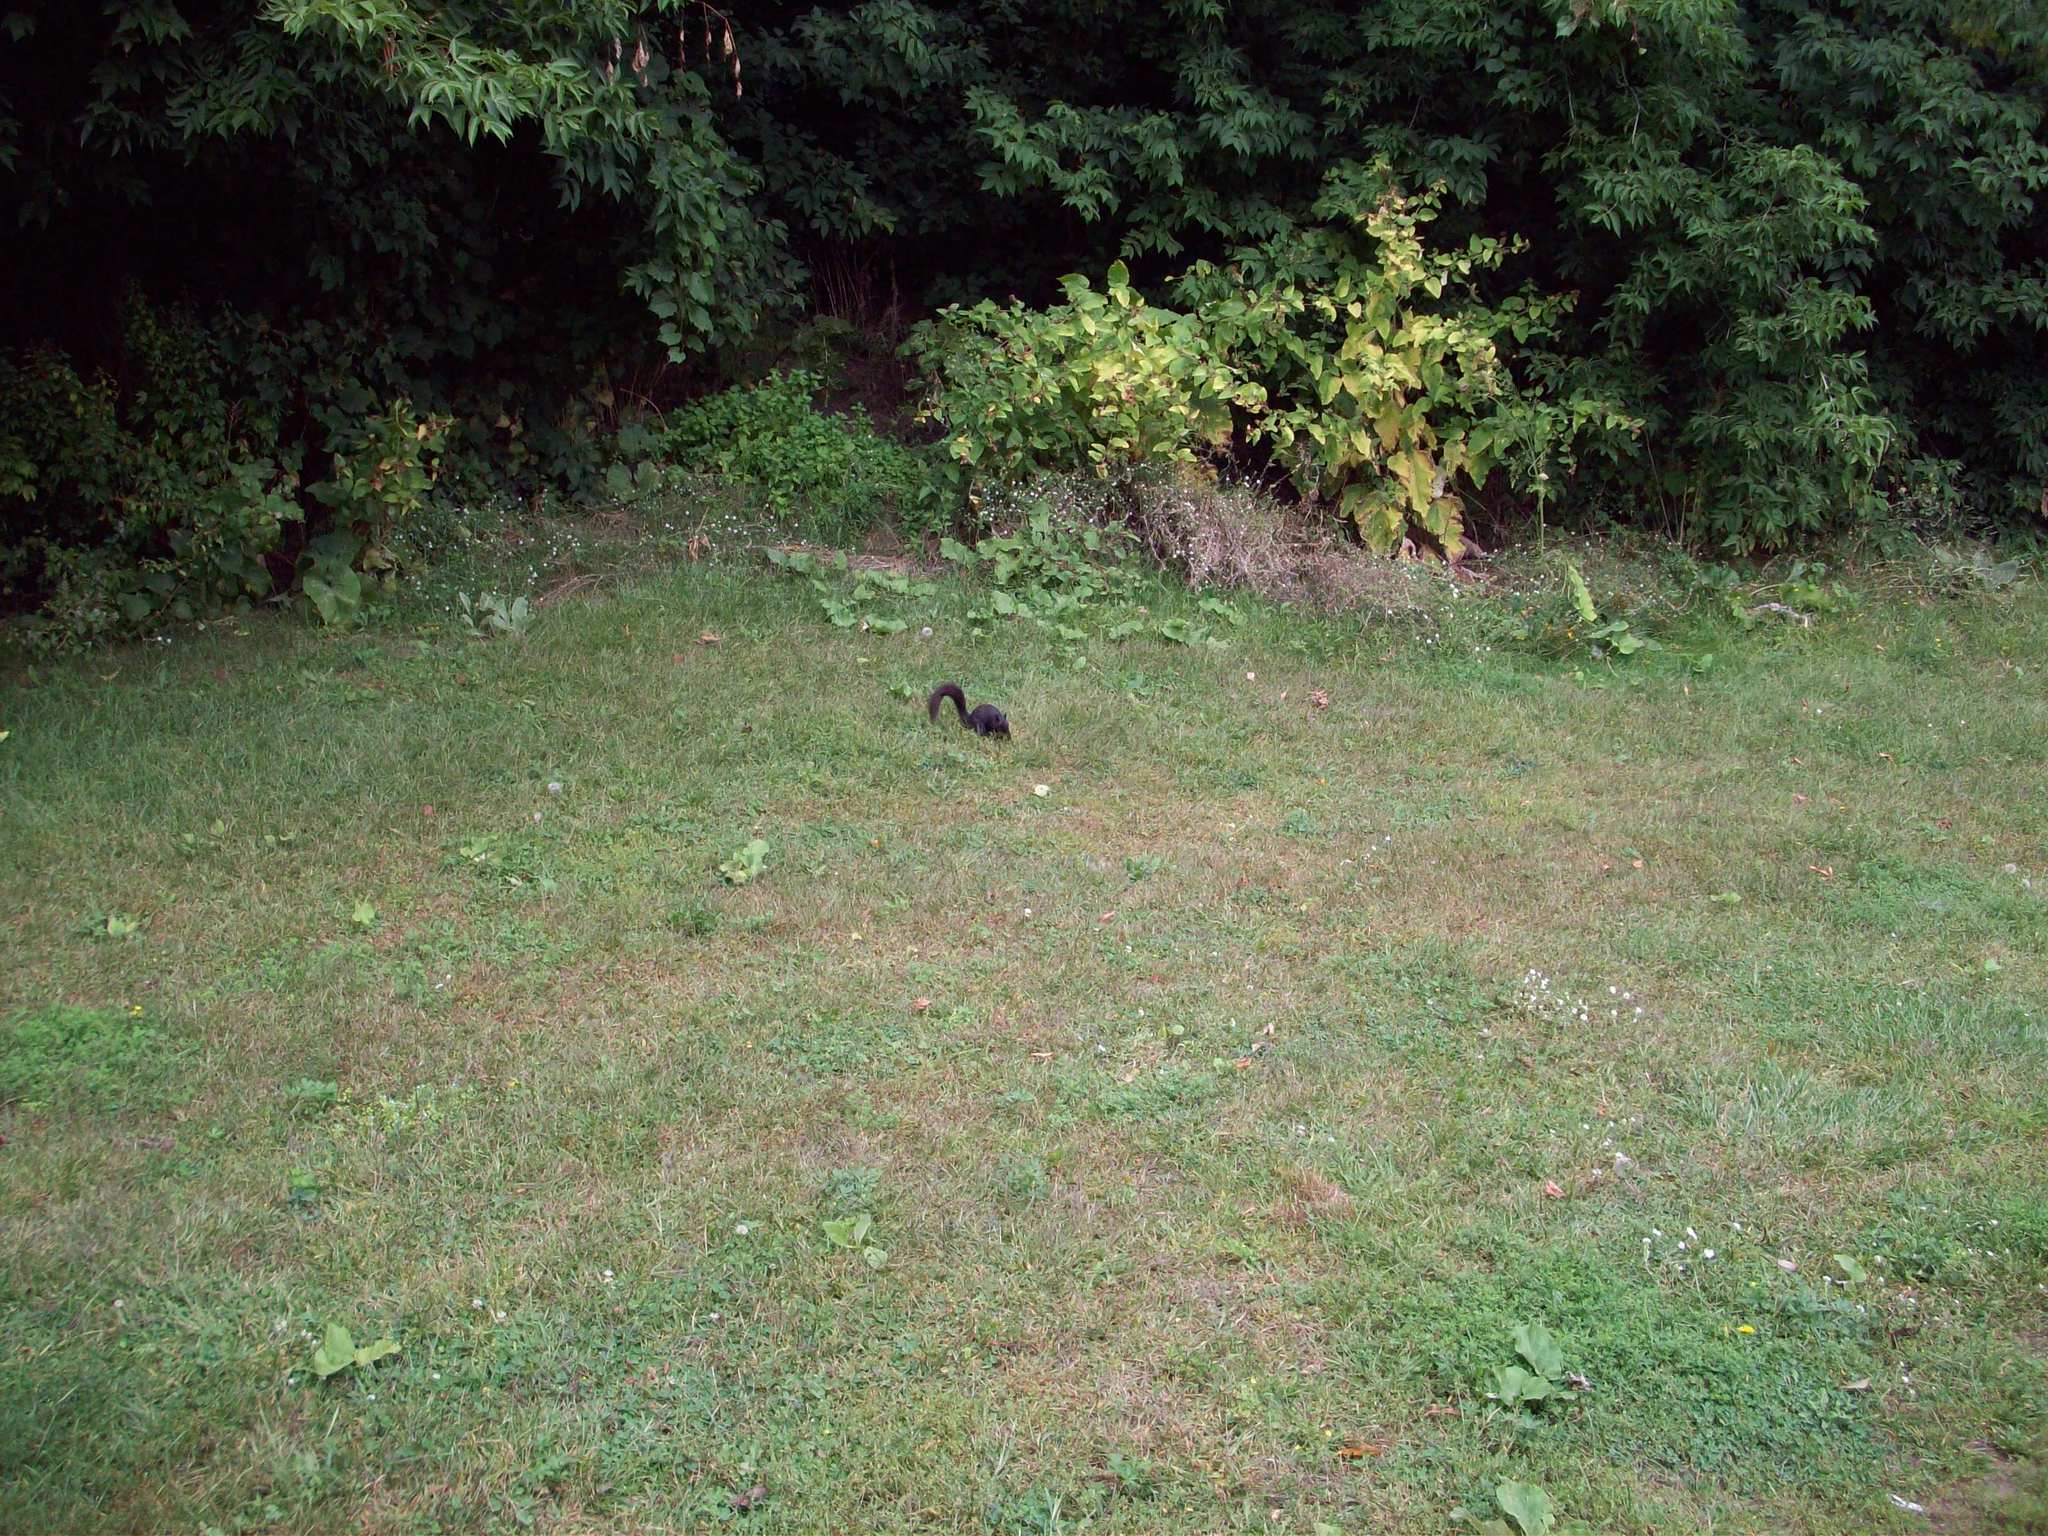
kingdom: Animalia
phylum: Chordata
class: Mammalia
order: Rodentia
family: Sciuridae
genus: Sciurus
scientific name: Sciurus carolinensis
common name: Eastern gray squirrel
